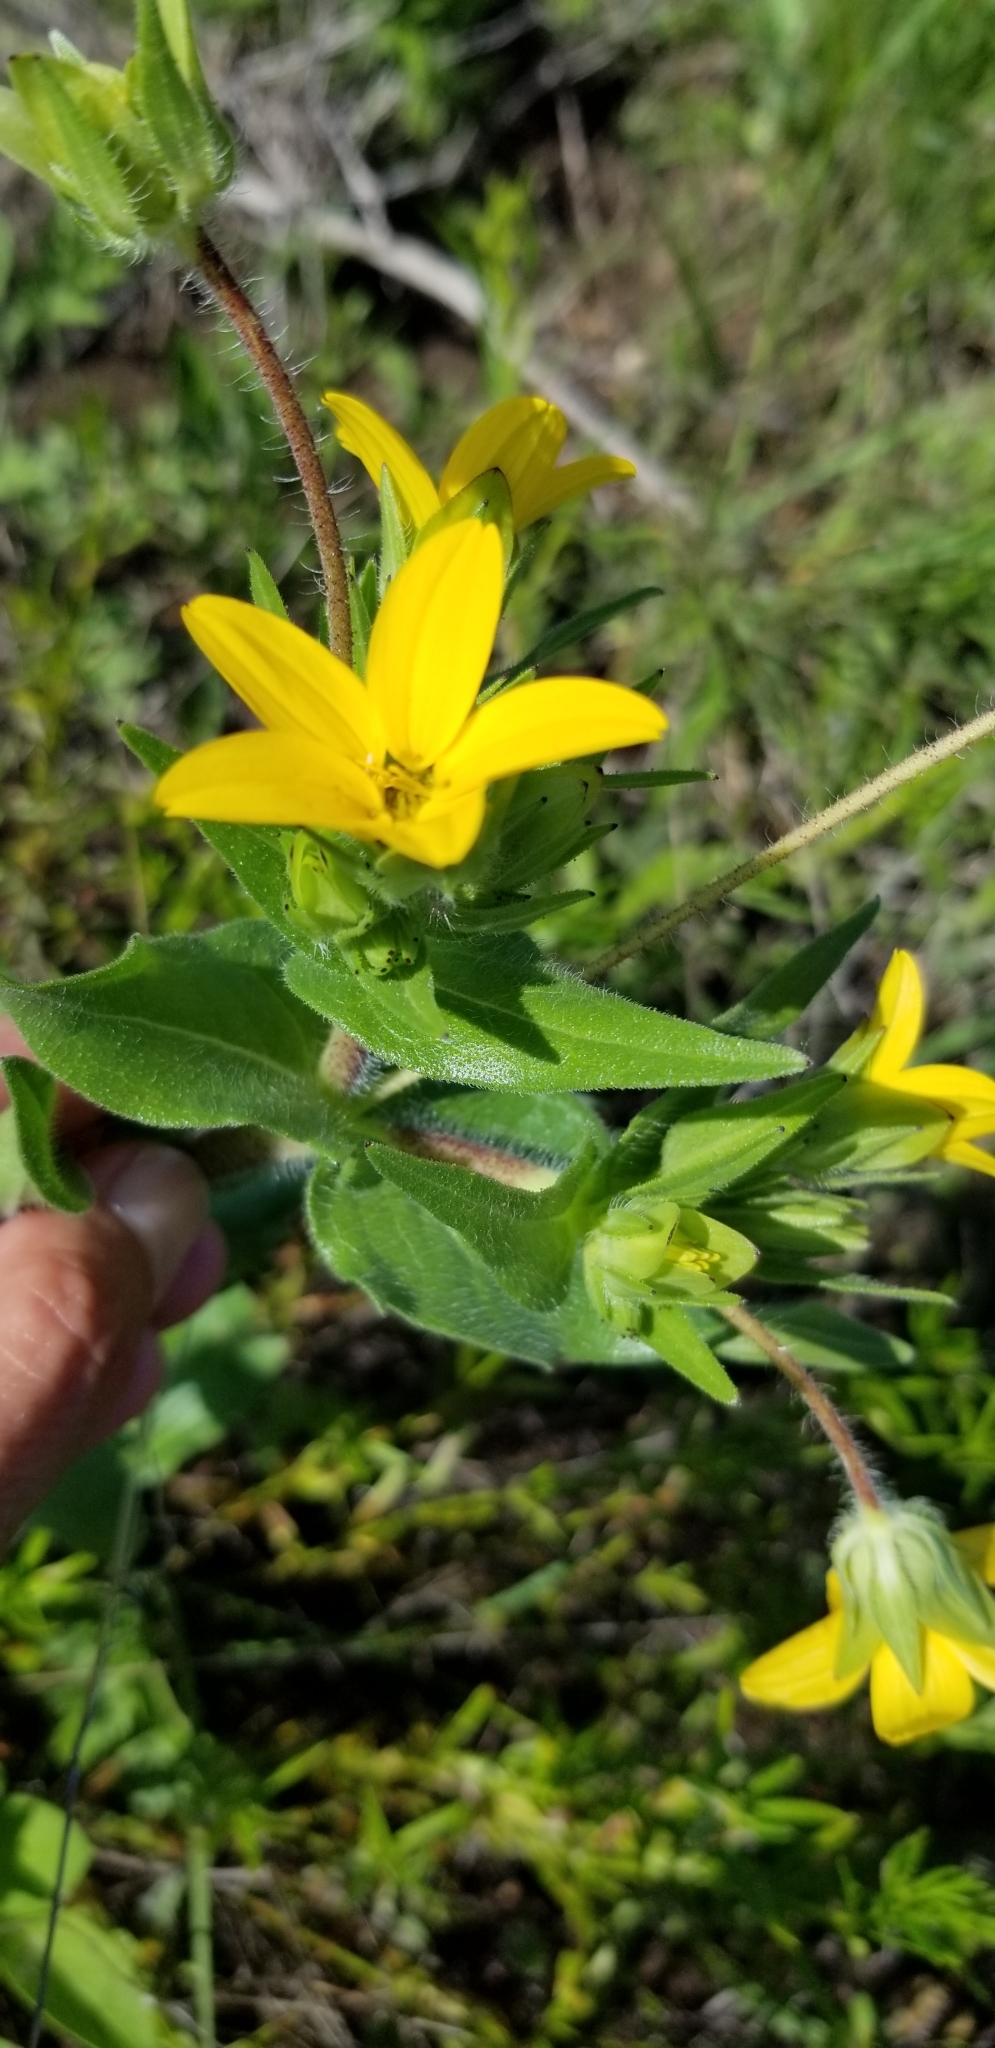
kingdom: Plantae
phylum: Tracheophyta
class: Magnoliopsida
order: Asterales
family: Asteraceae
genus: Lindheimera
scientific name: Lindheimera texana
